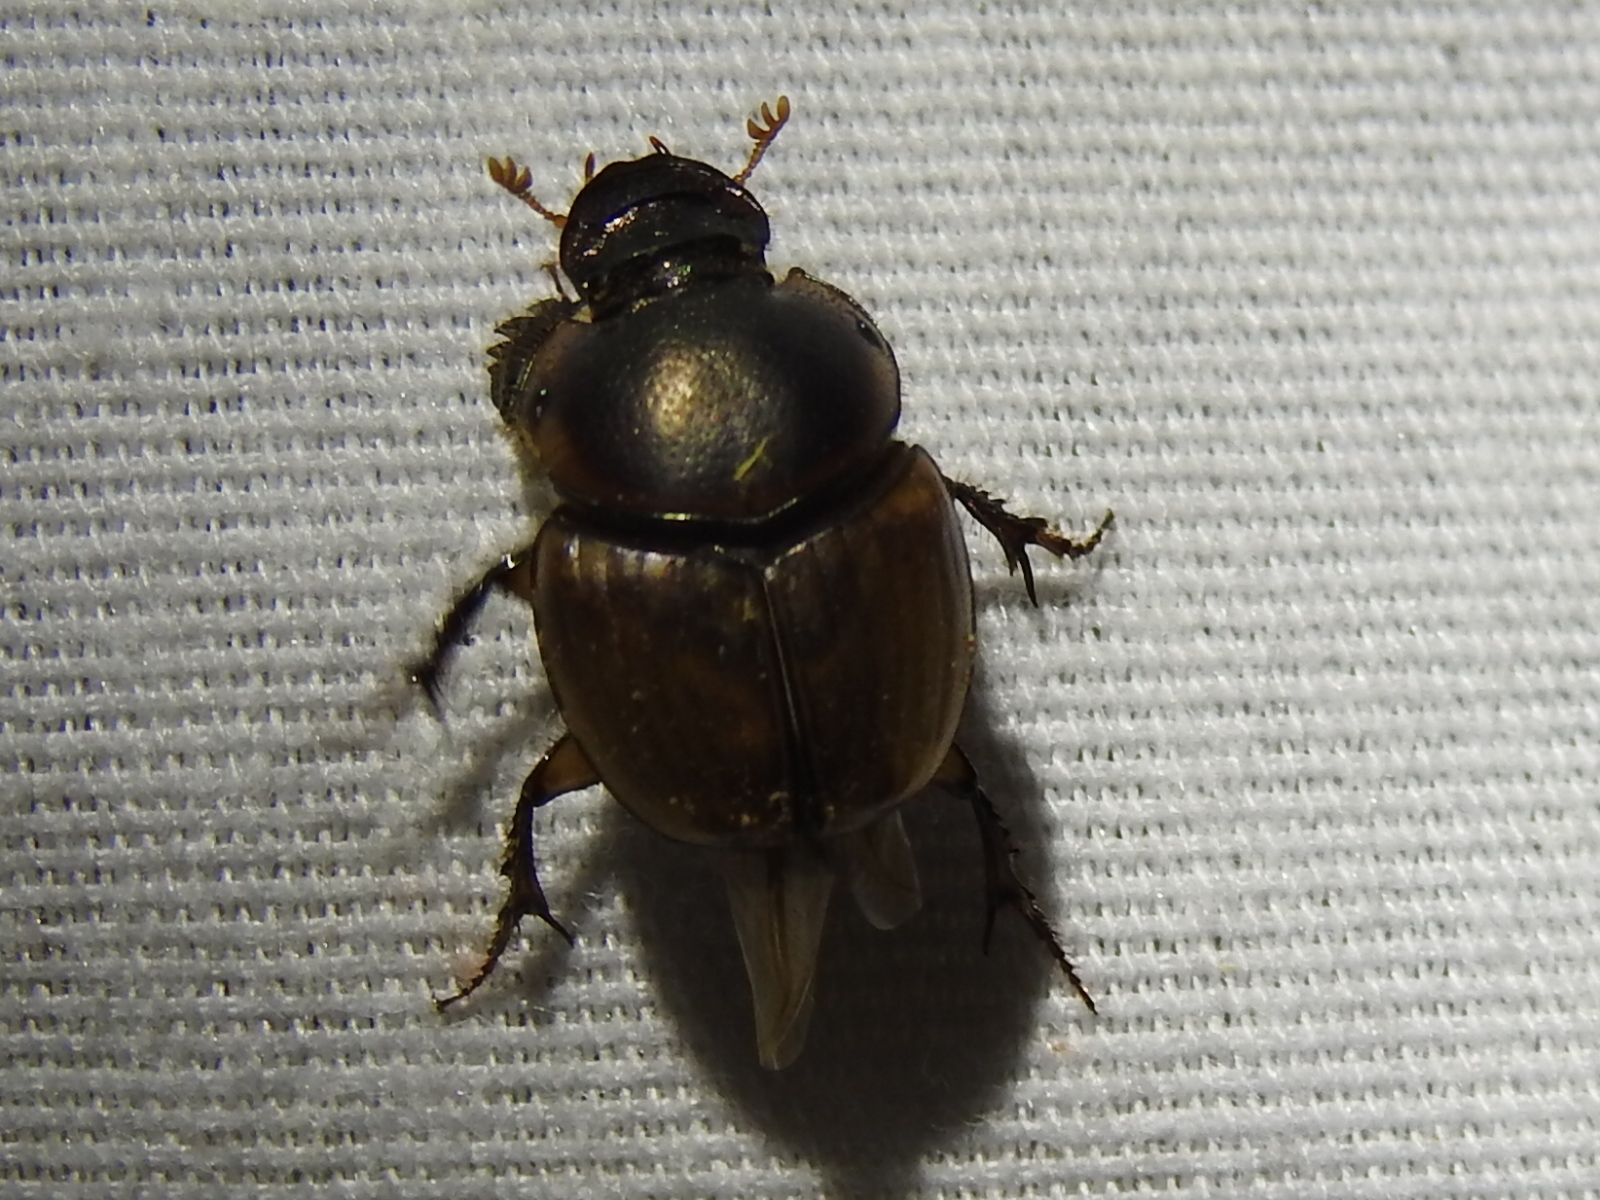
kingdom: Animalia
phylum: Arthropoda
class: Insecta
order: Coleoptera
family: Scarabaeidae
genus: Digitonthophagus
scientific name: Digitonthophagus gazella
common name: Brown dung beetle
